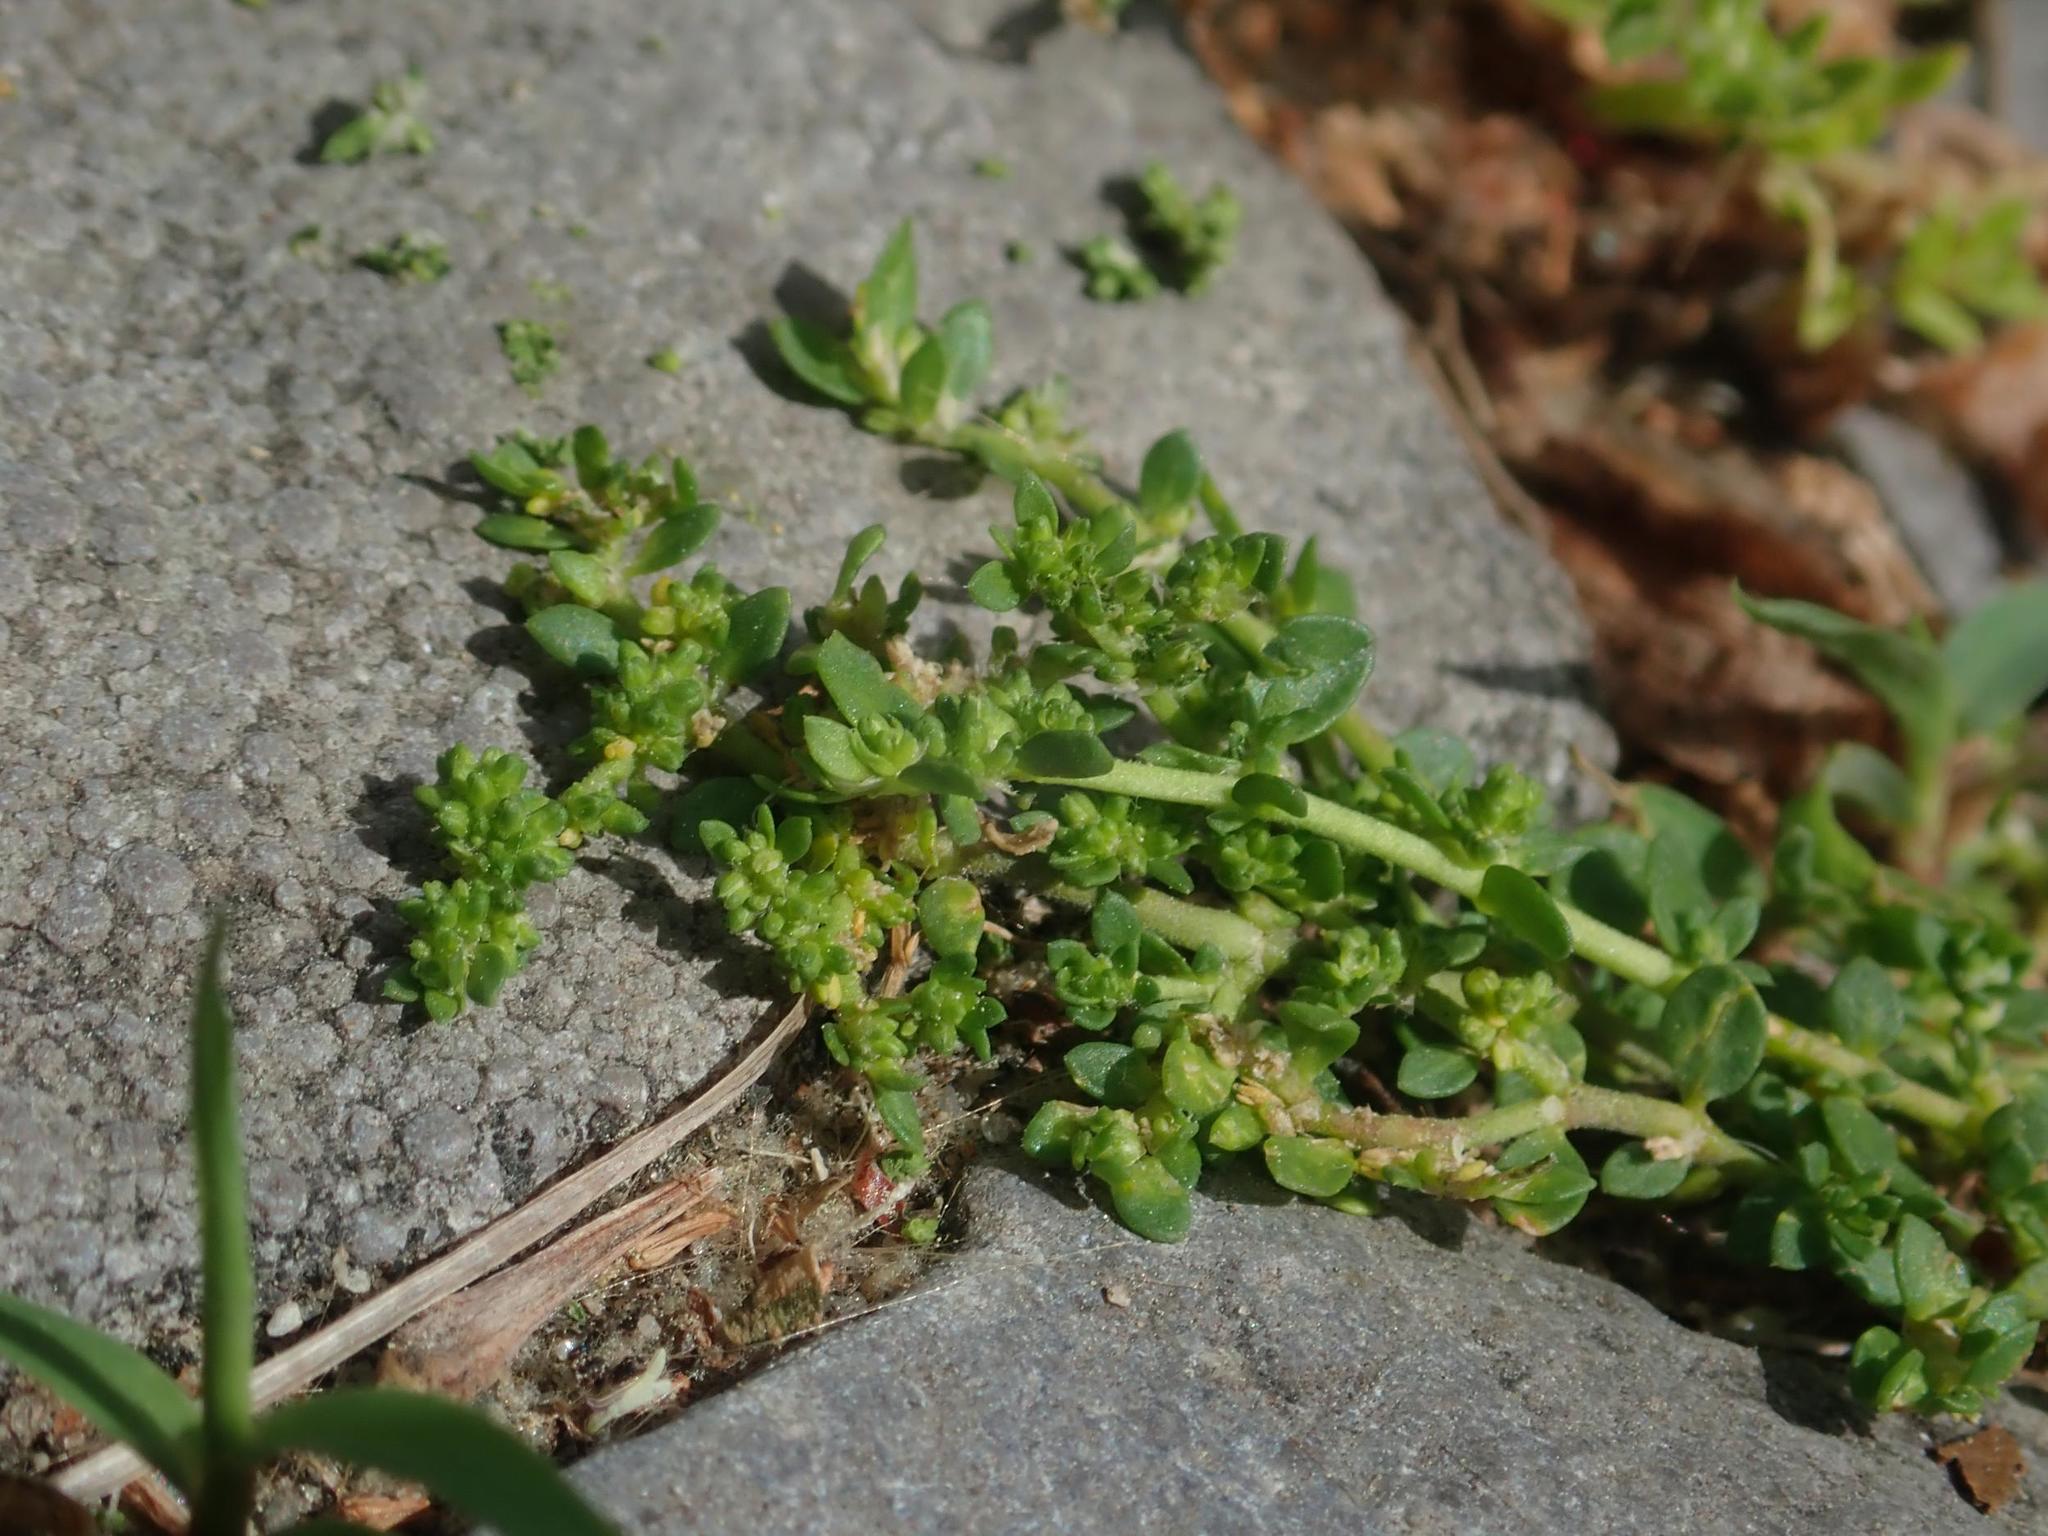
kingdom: Plantae
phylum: Tracheophyta
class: Magnoliopsida
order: Caryophyllales
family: Caryophyllaceae
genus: Herniaria
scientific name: Herniaria glabra
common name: Smooth rupturewort
